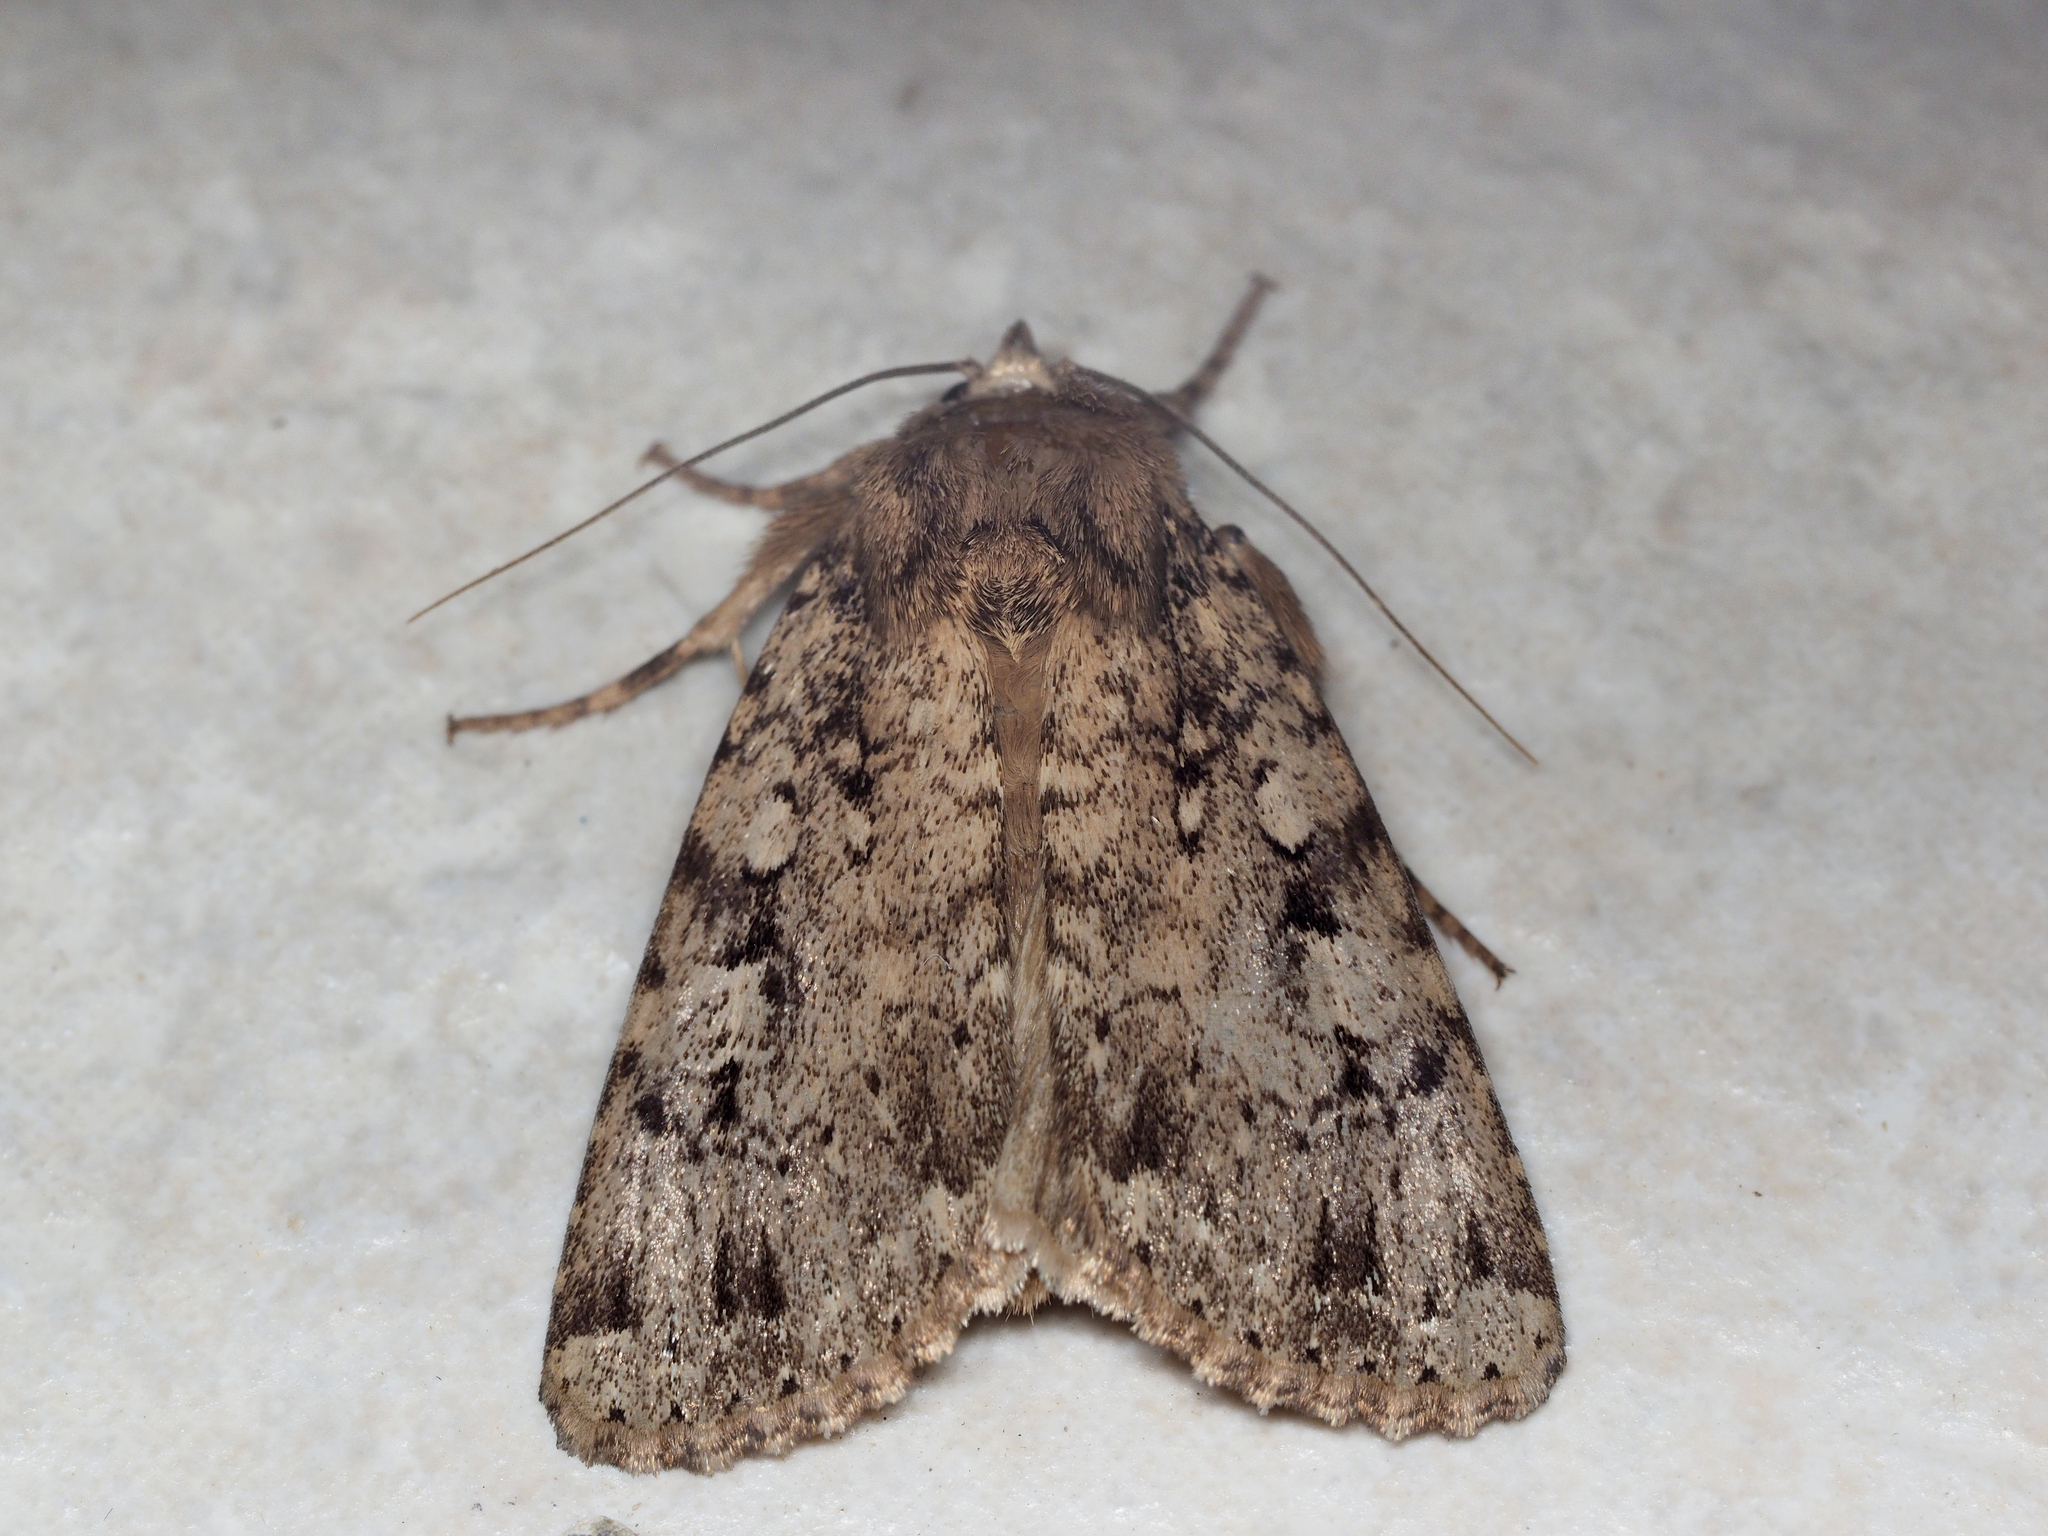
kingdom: Animalia
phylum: Arthropoda
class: Insecta
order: Lepidoptera
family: Noctuidae
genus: Amphipyra
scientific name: Amphipyra effusa
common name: Landguard ochre
